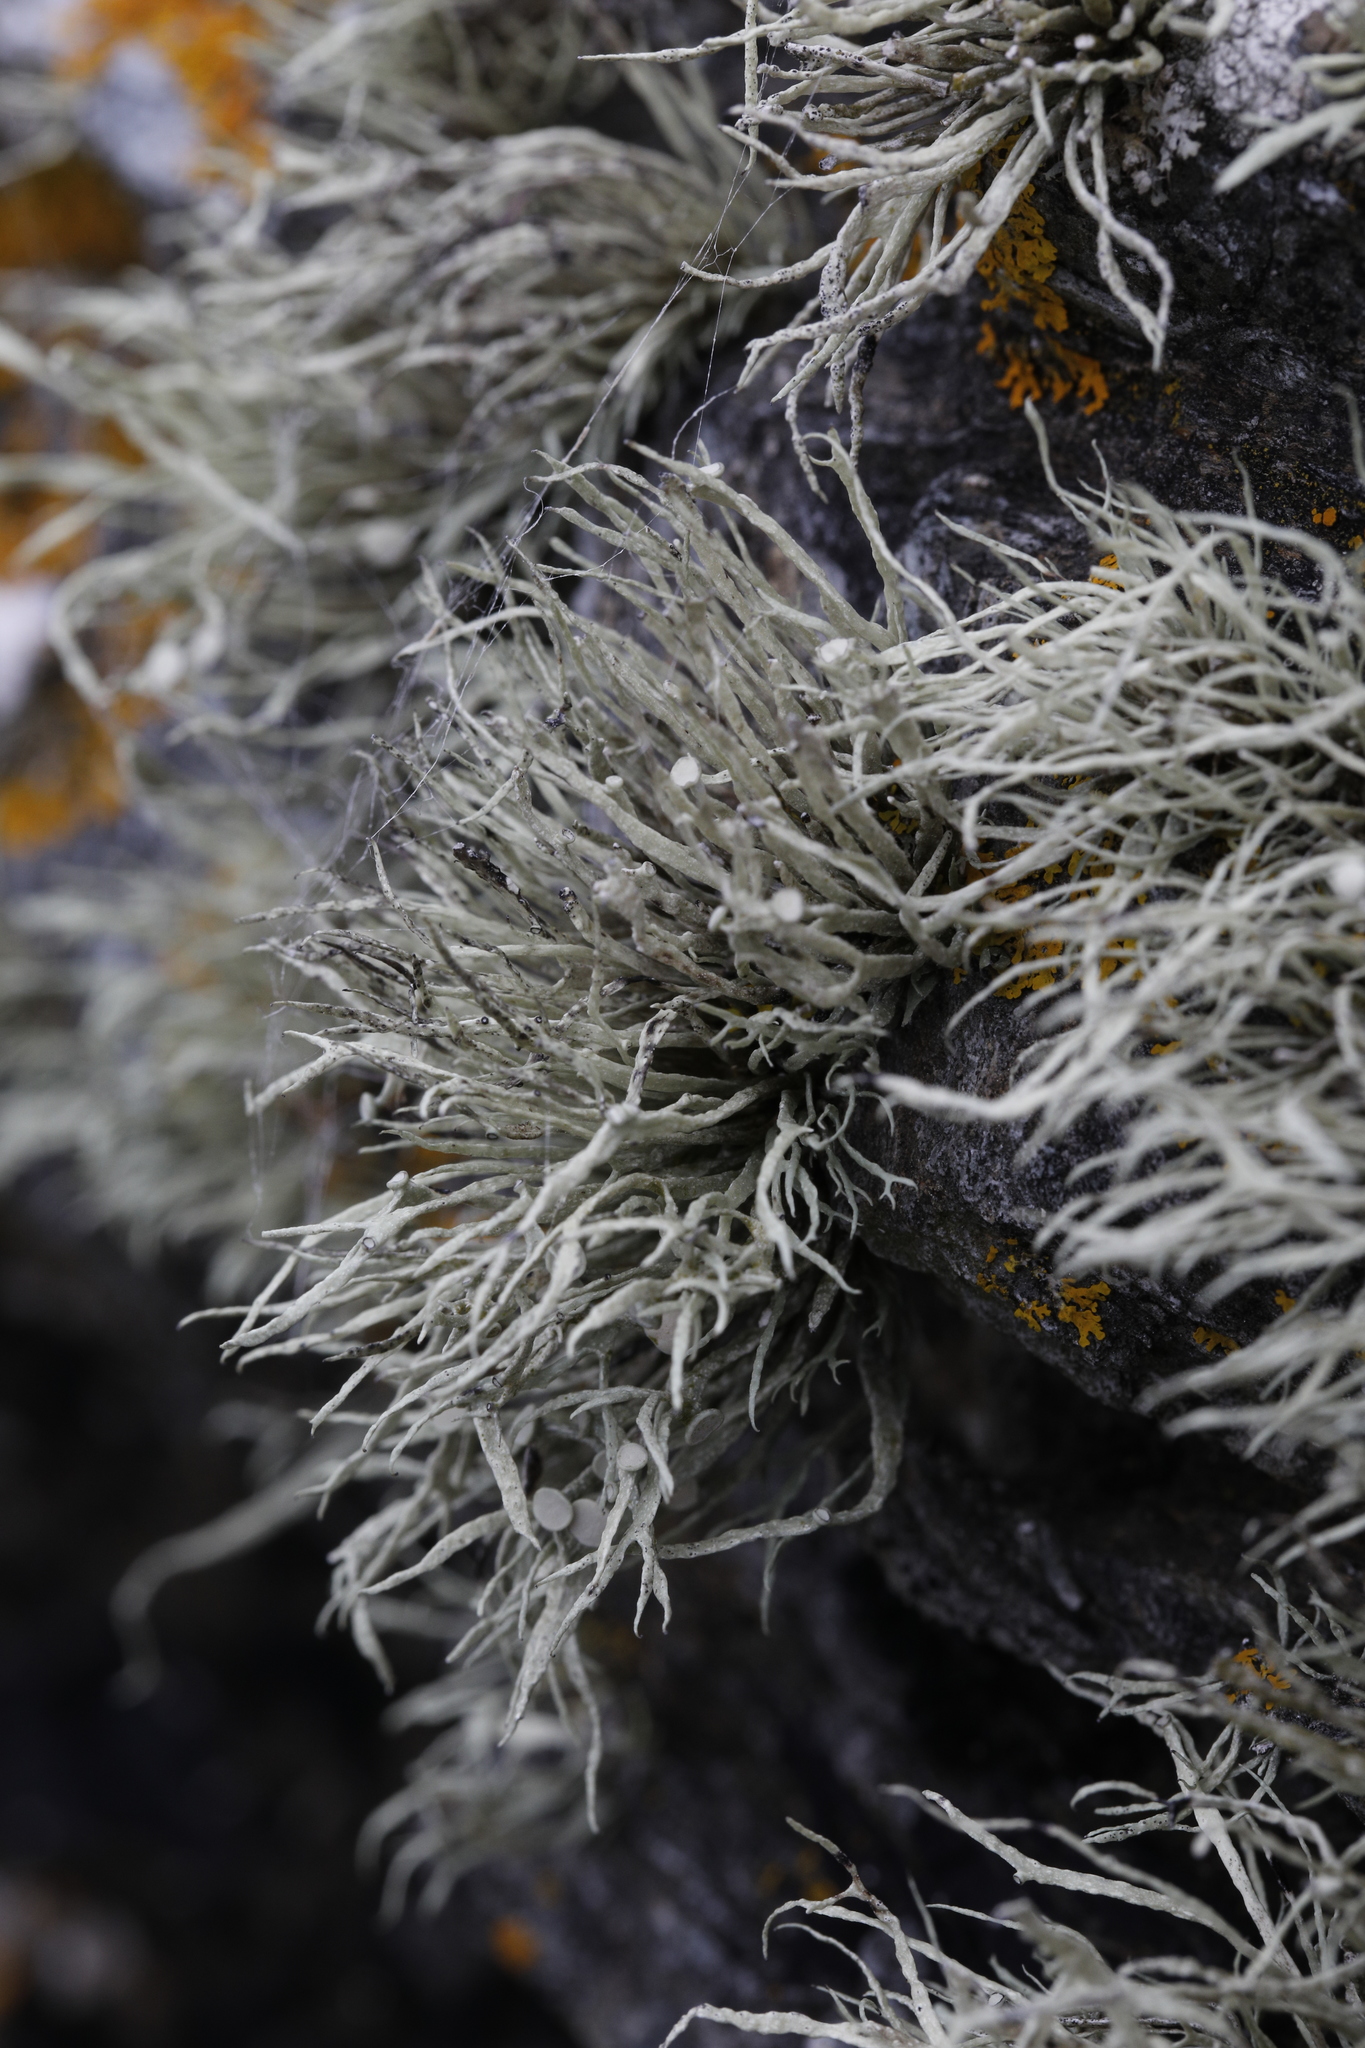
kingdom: Fungi
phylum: Ascomycota
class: Lecanoromycetes
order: Lecanorales
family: Ramalinaceae
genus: Ramalina
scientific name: Ramalina cuspidata
